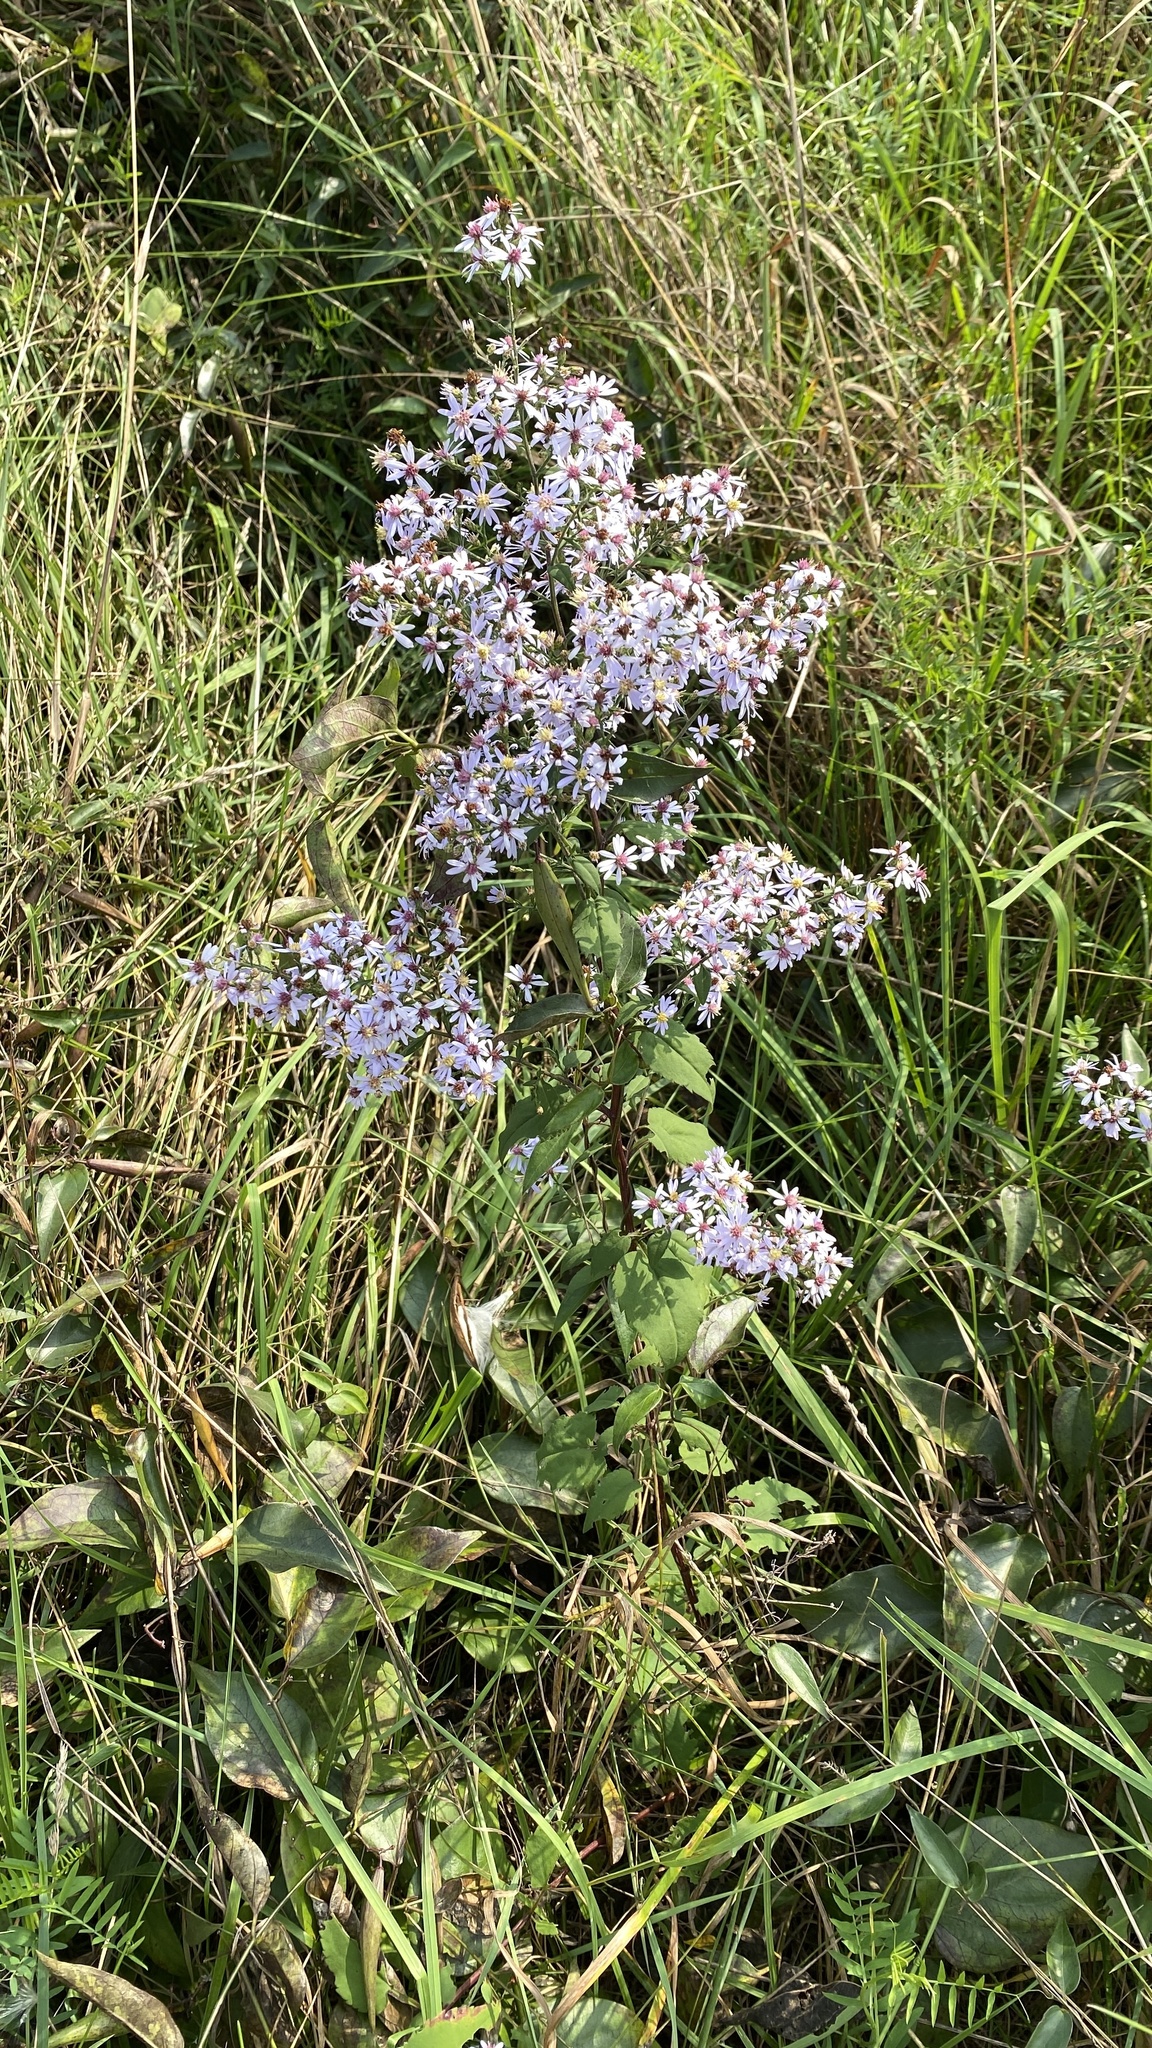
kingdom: Plantae
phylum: Tracheophyta
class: Magnoliopsida
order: Asterales
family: Asteraceae
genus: Symphyotrichum
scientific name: Symphyotrichum cordifolium
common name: Beeweed
